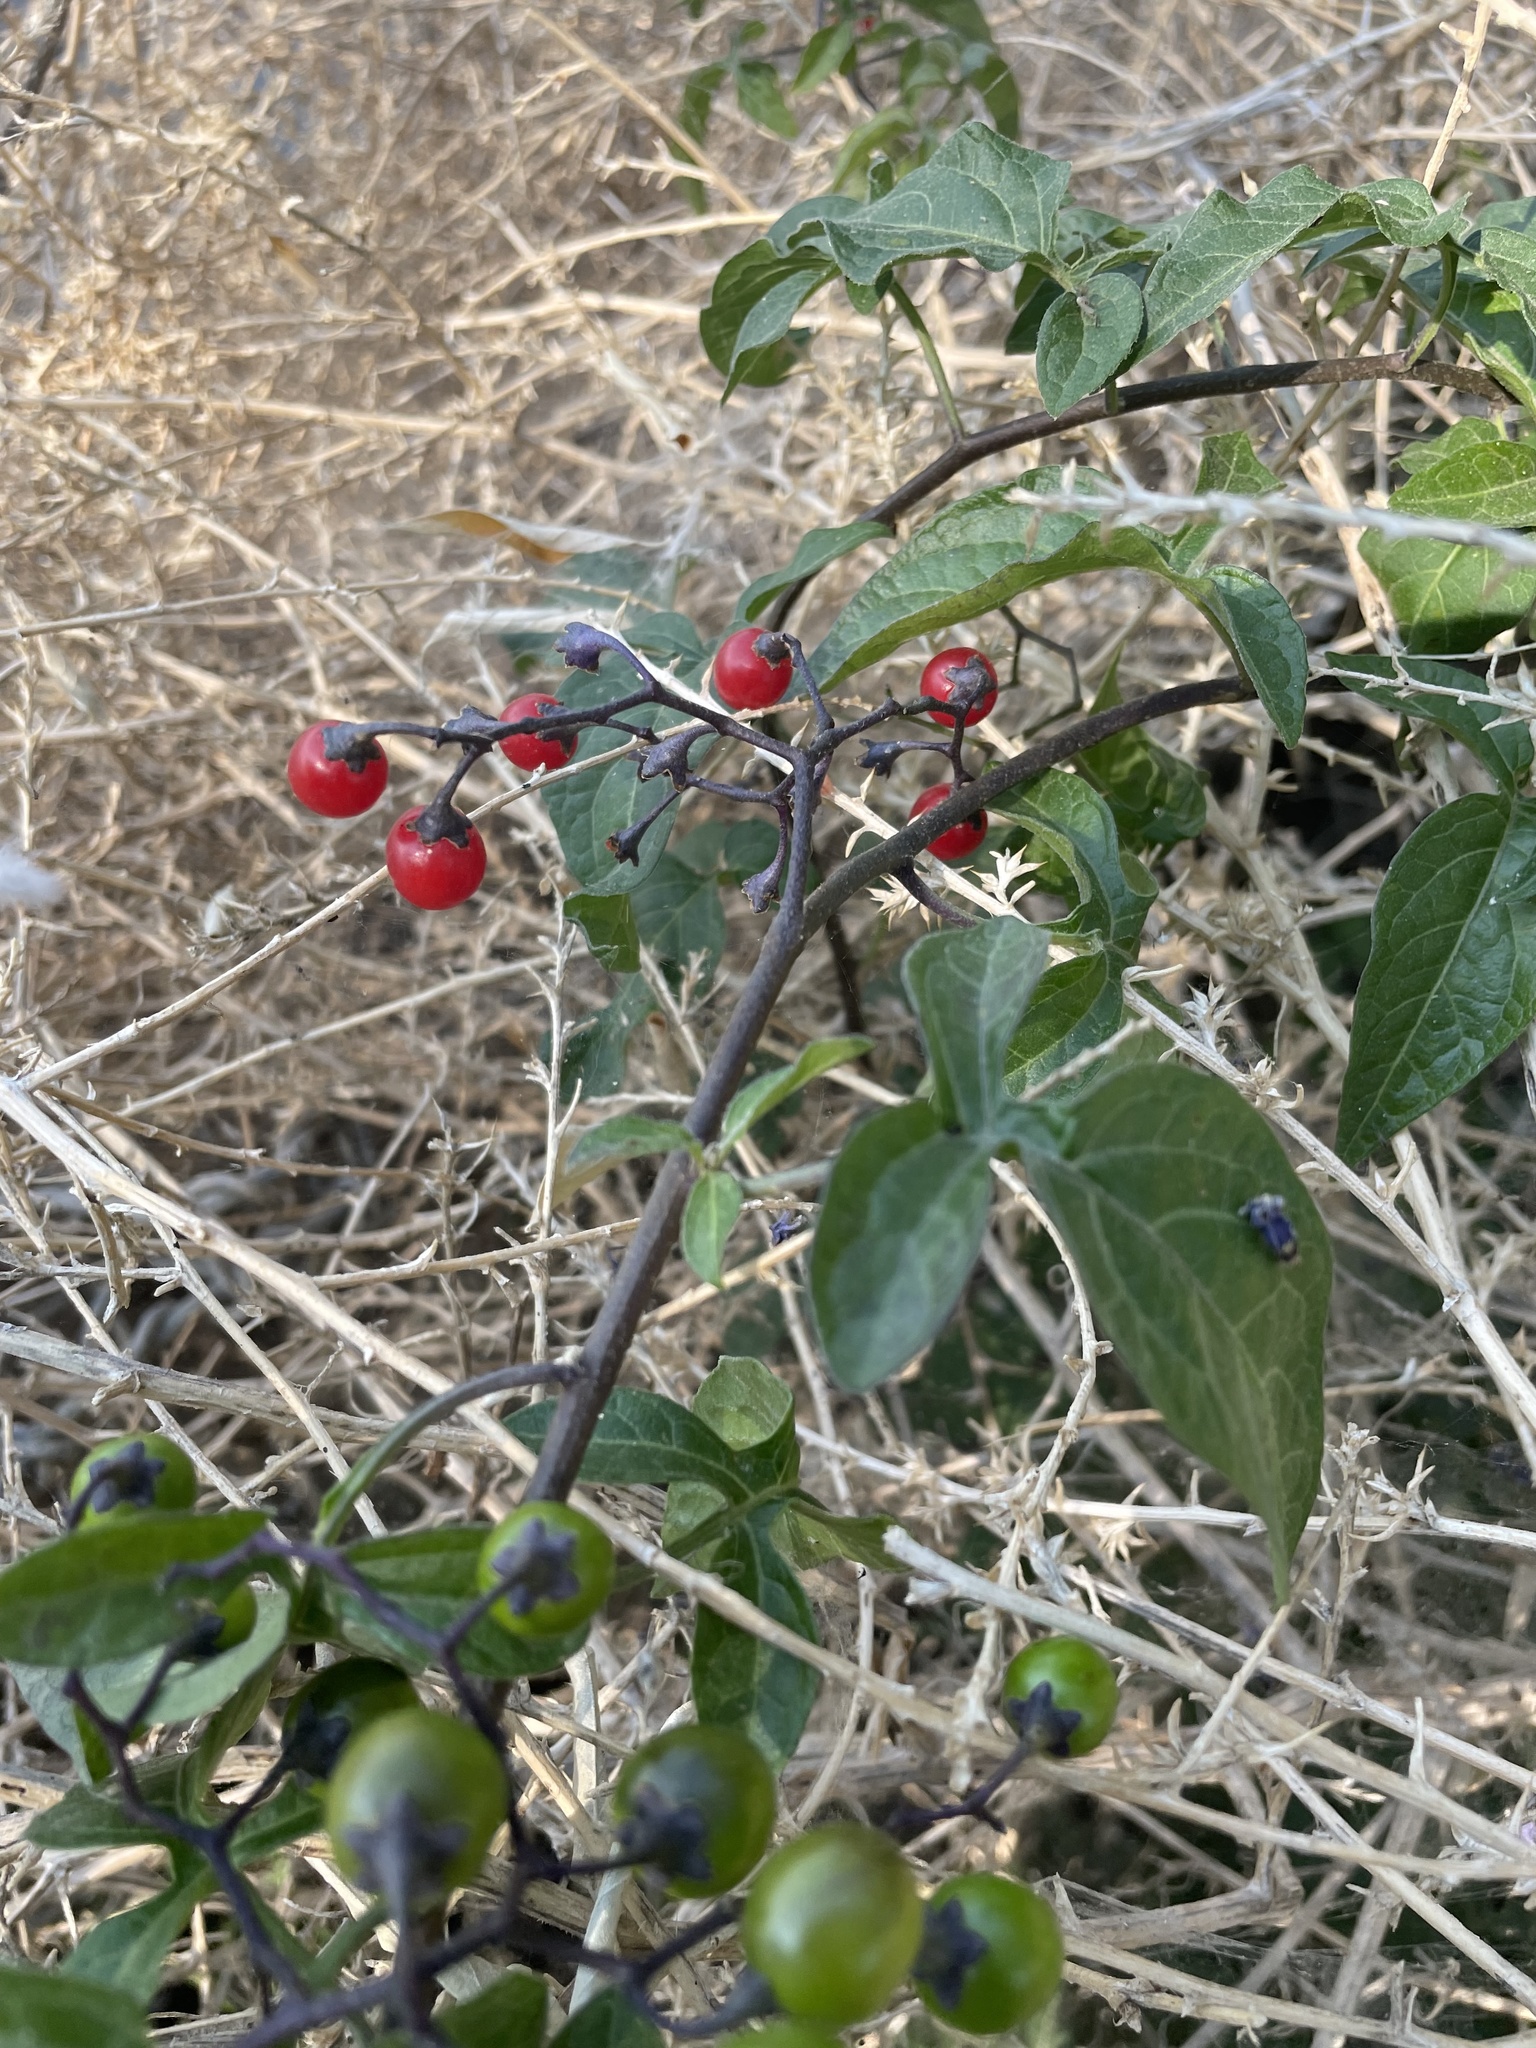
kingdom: Plantae
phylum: Tracheophyta
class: Magnoliopsida
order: Solanales
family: Solanaceae
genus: Solanum
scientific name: Solanum dulcamara
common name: Climbing nightshade
